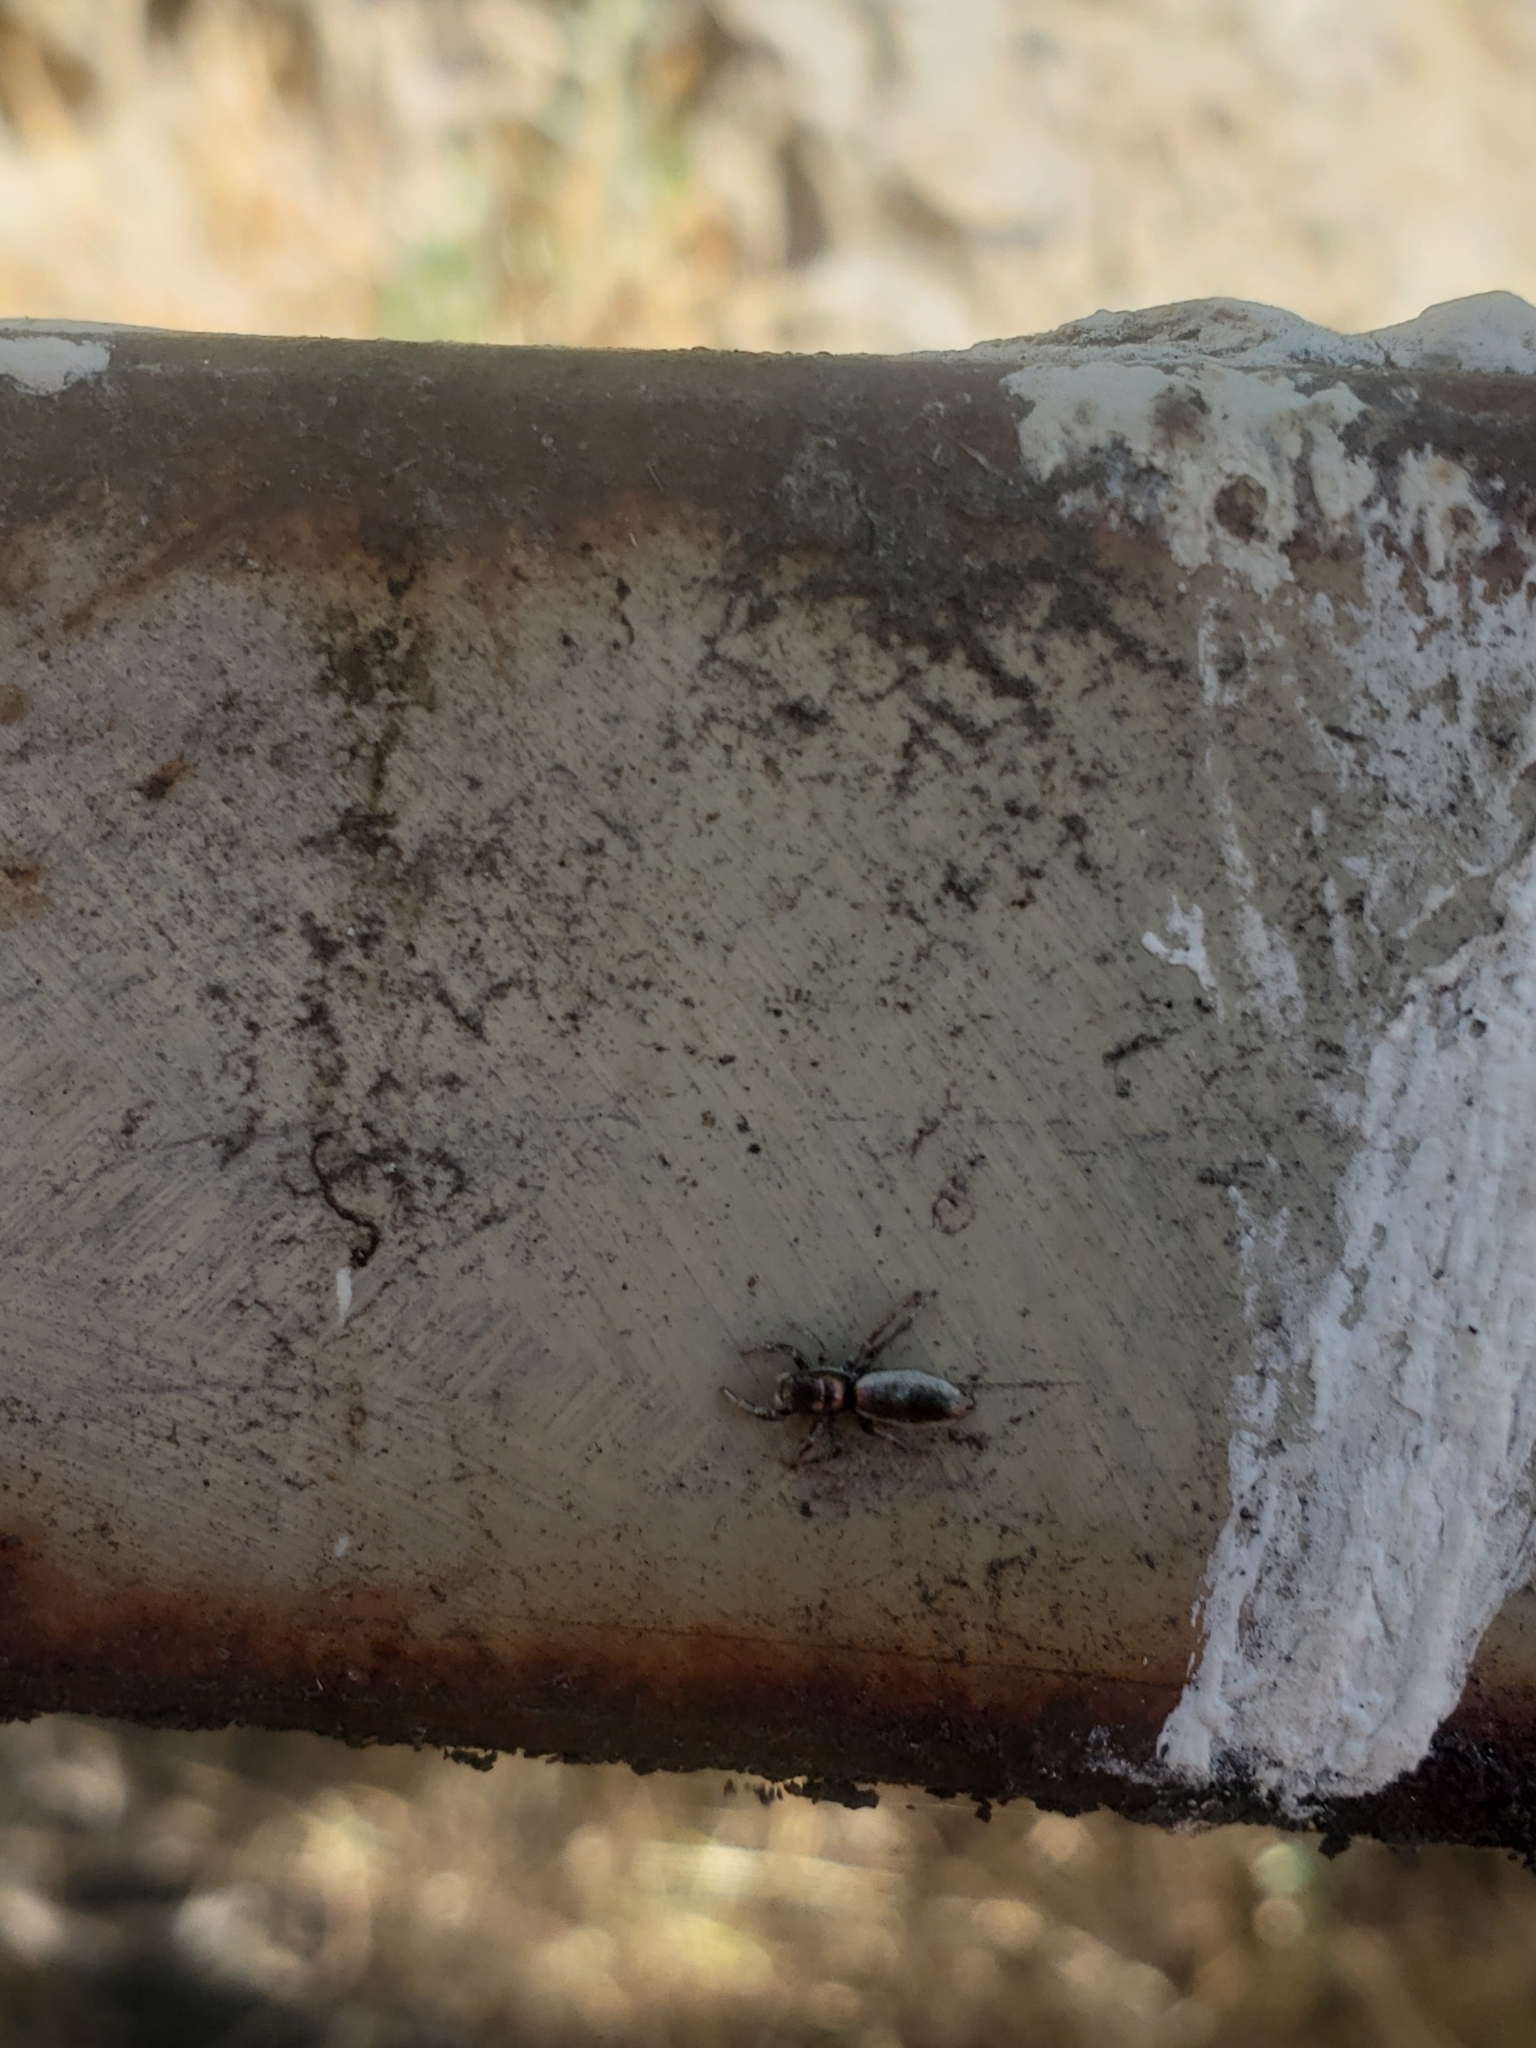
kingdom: Animalia
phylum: Arthropoda
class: Arachnida
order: Araneae
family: Salticidae
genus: Salticus
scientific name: Salticus peckhamae
